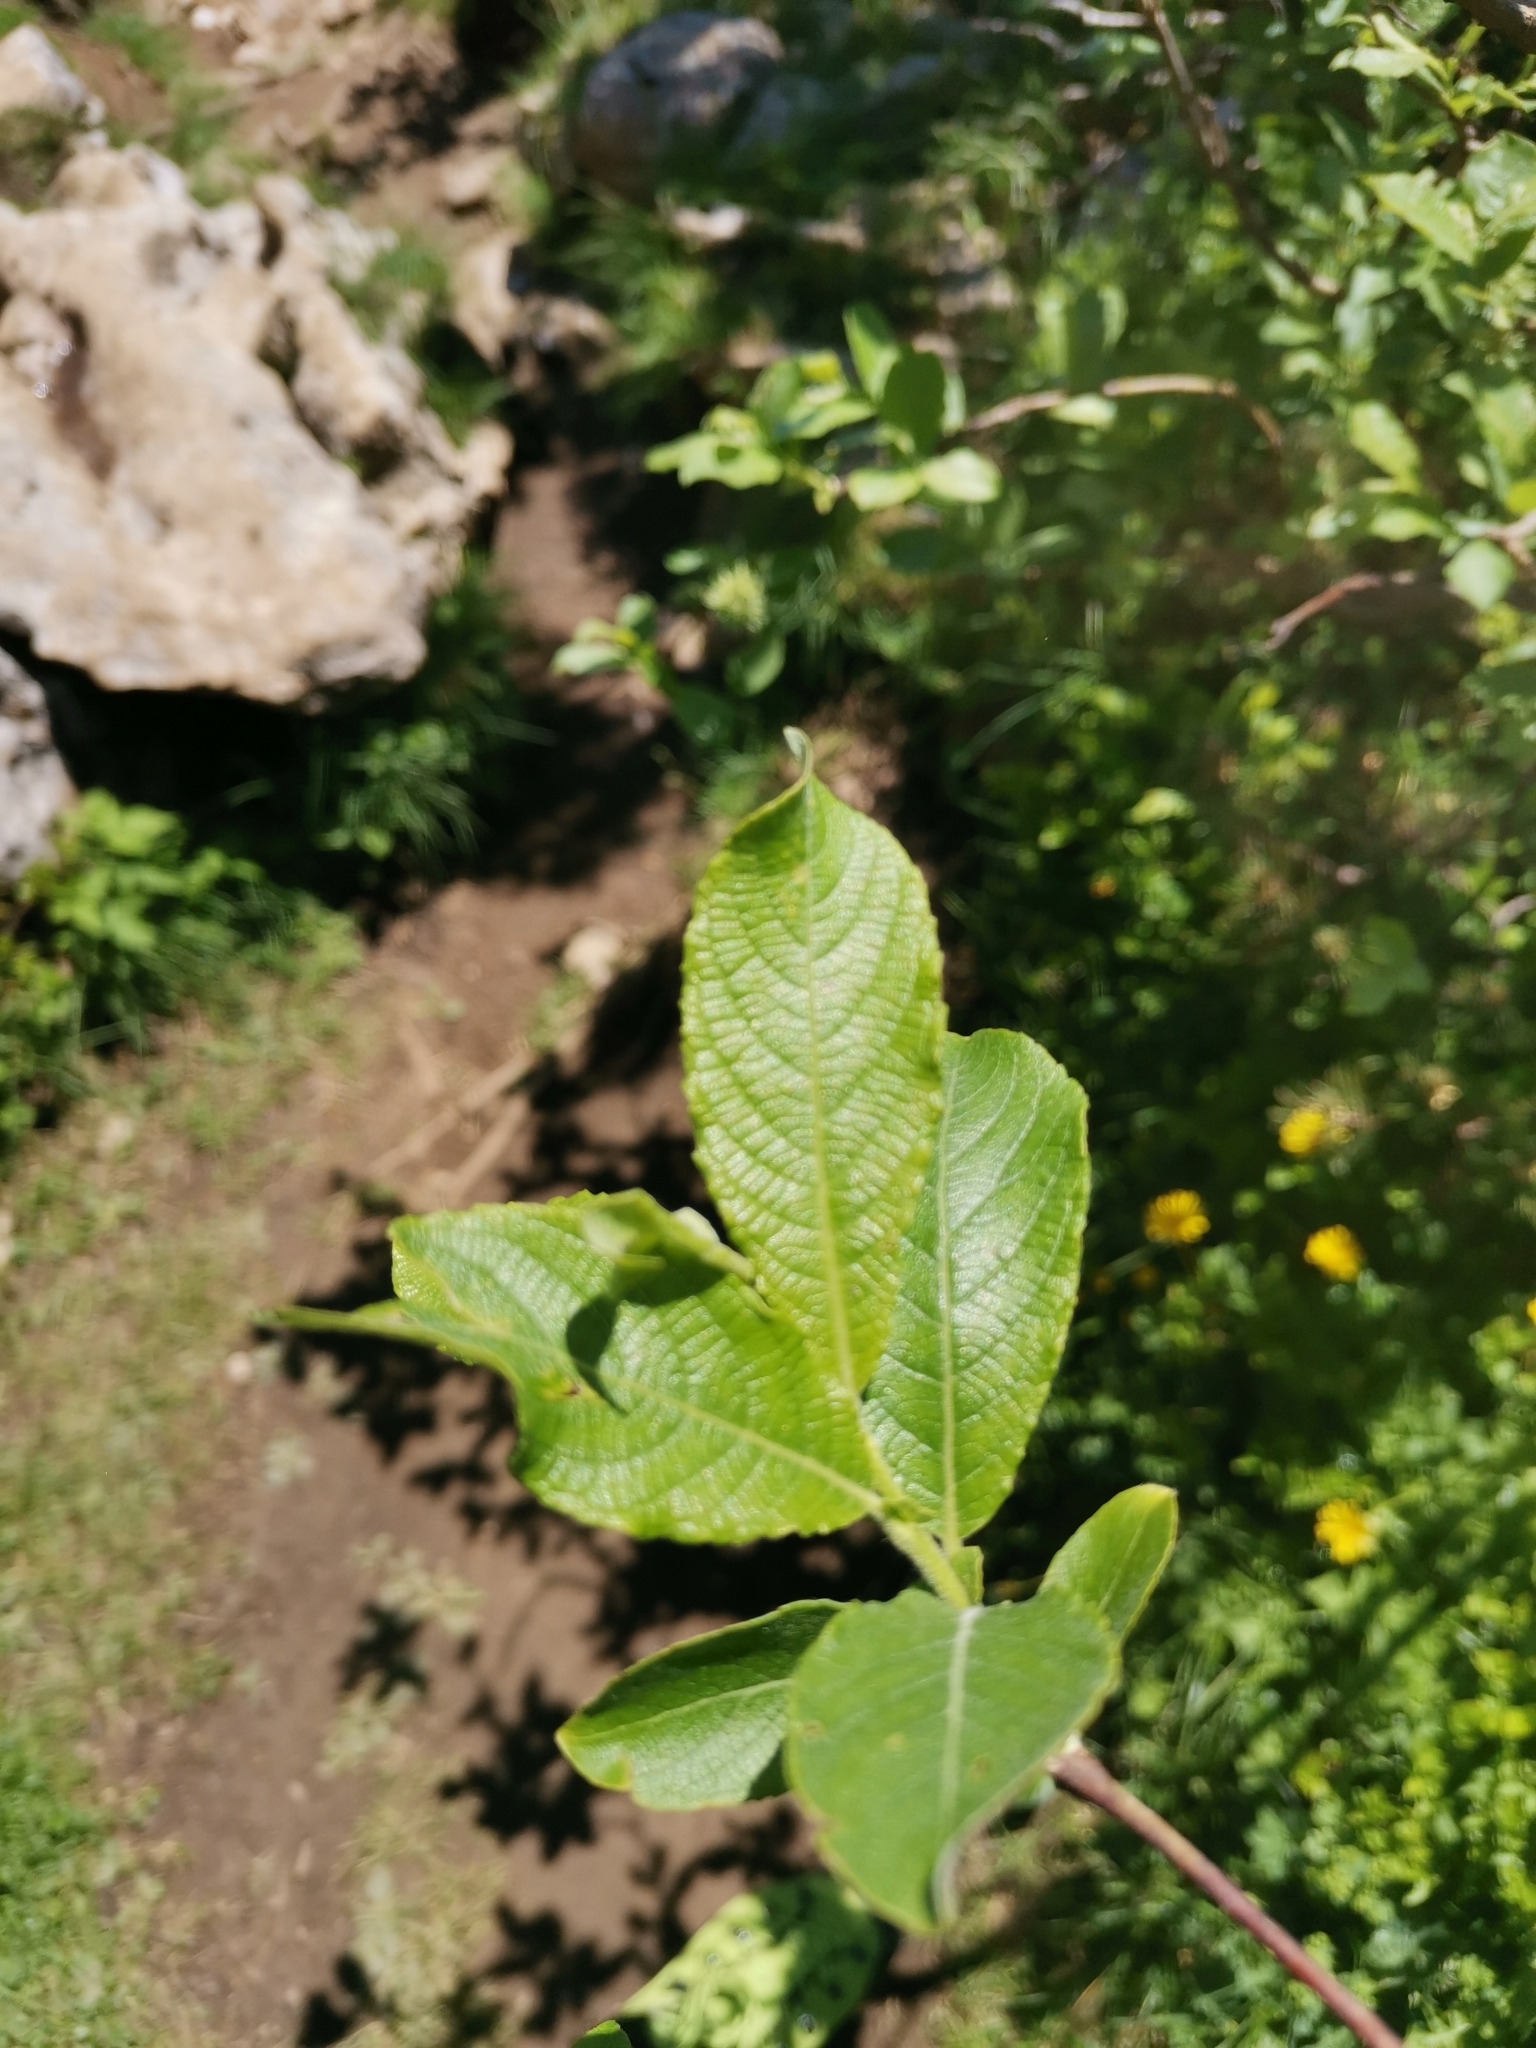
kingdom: Plantae
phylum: Tracheophyta
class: Magnoliopsida
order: Malpighiales
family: Salicaceae
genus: Salix
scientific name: Salix appendiculata
